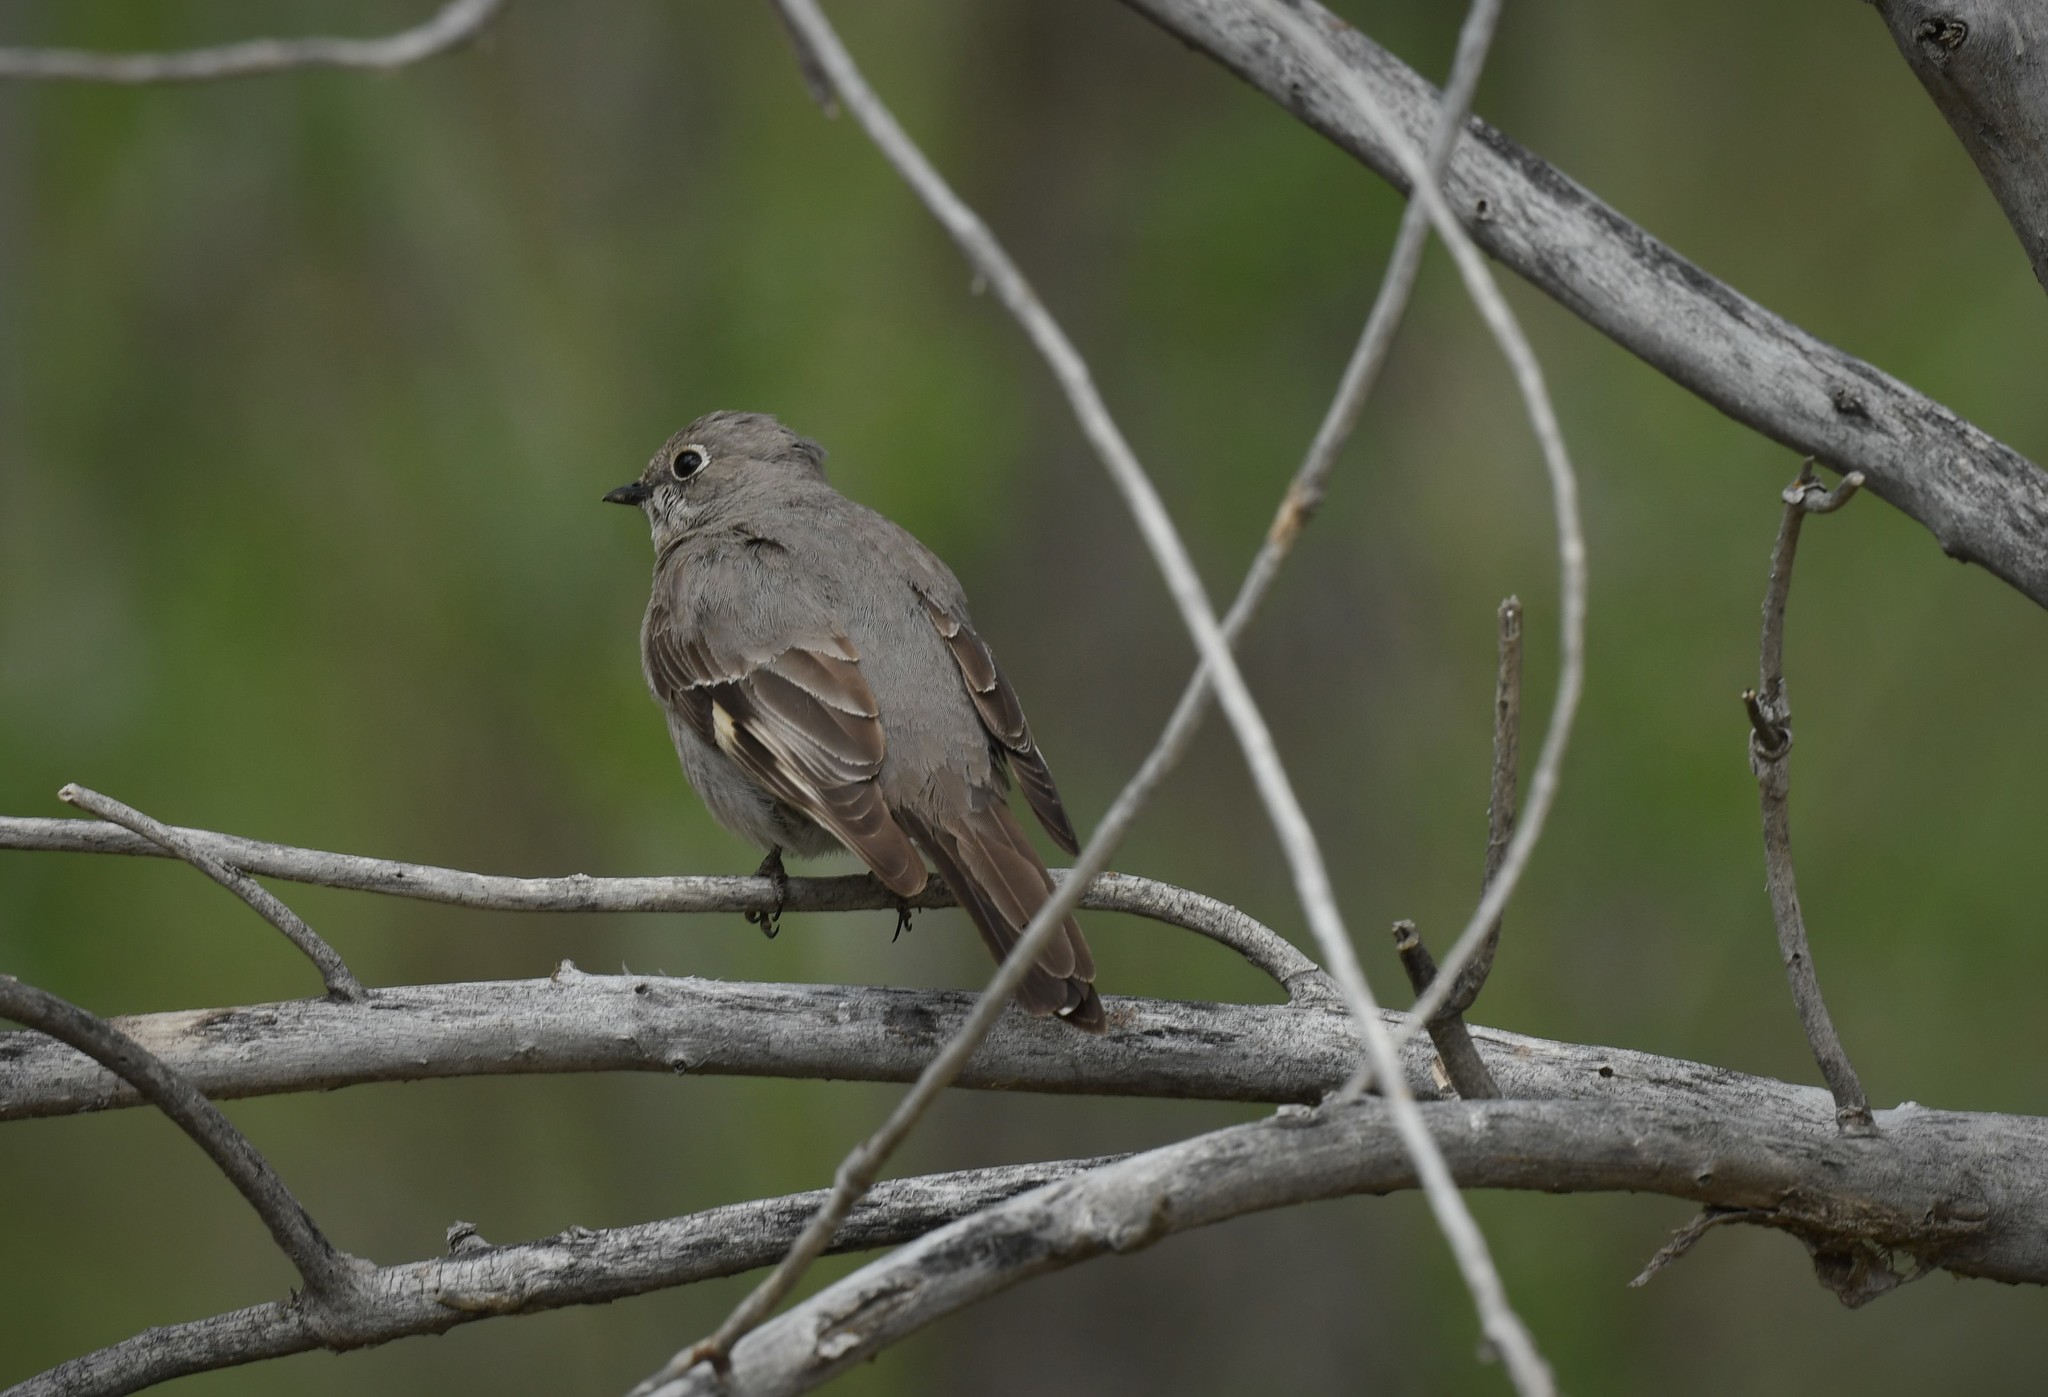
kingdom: Animalia
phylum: Chordata
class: Aves
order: Passeriformes
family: Turdidae
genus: Myadestes
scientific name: Myadestes townsendi
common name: Townsend's solitaire
